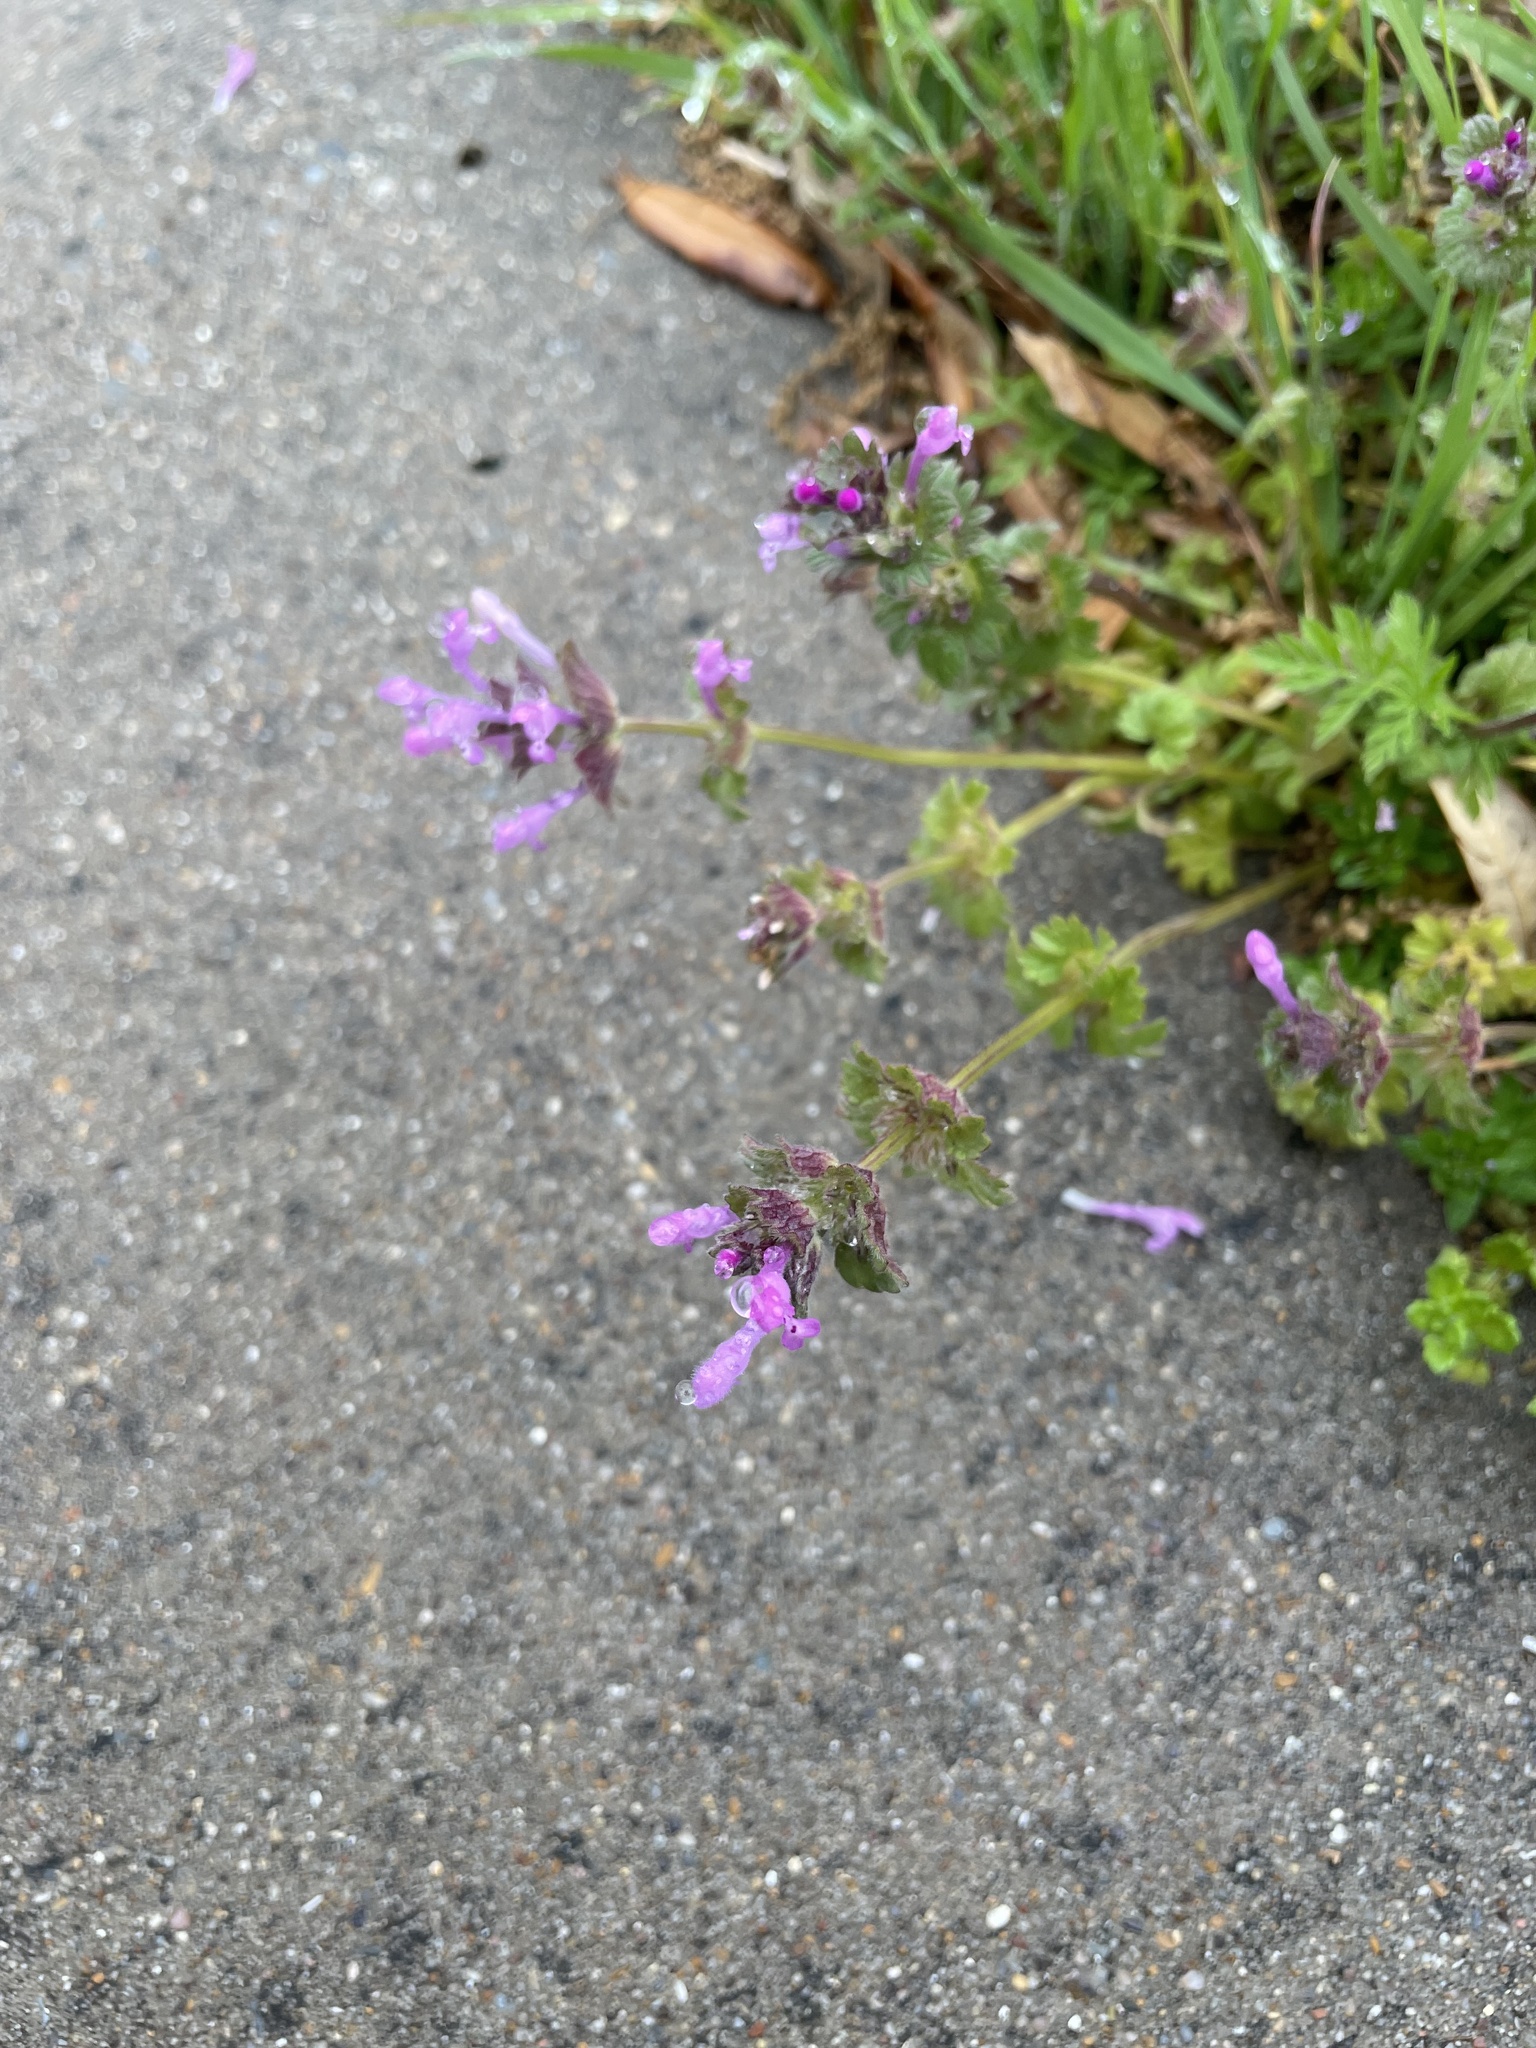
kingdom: Plantae
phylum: Tracheophyta
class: Magnoliopsida
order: Lamiales
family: Lamiaceae
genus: Lamium
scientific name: Lamium amplexicaule
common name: Henbit dead-nettle
